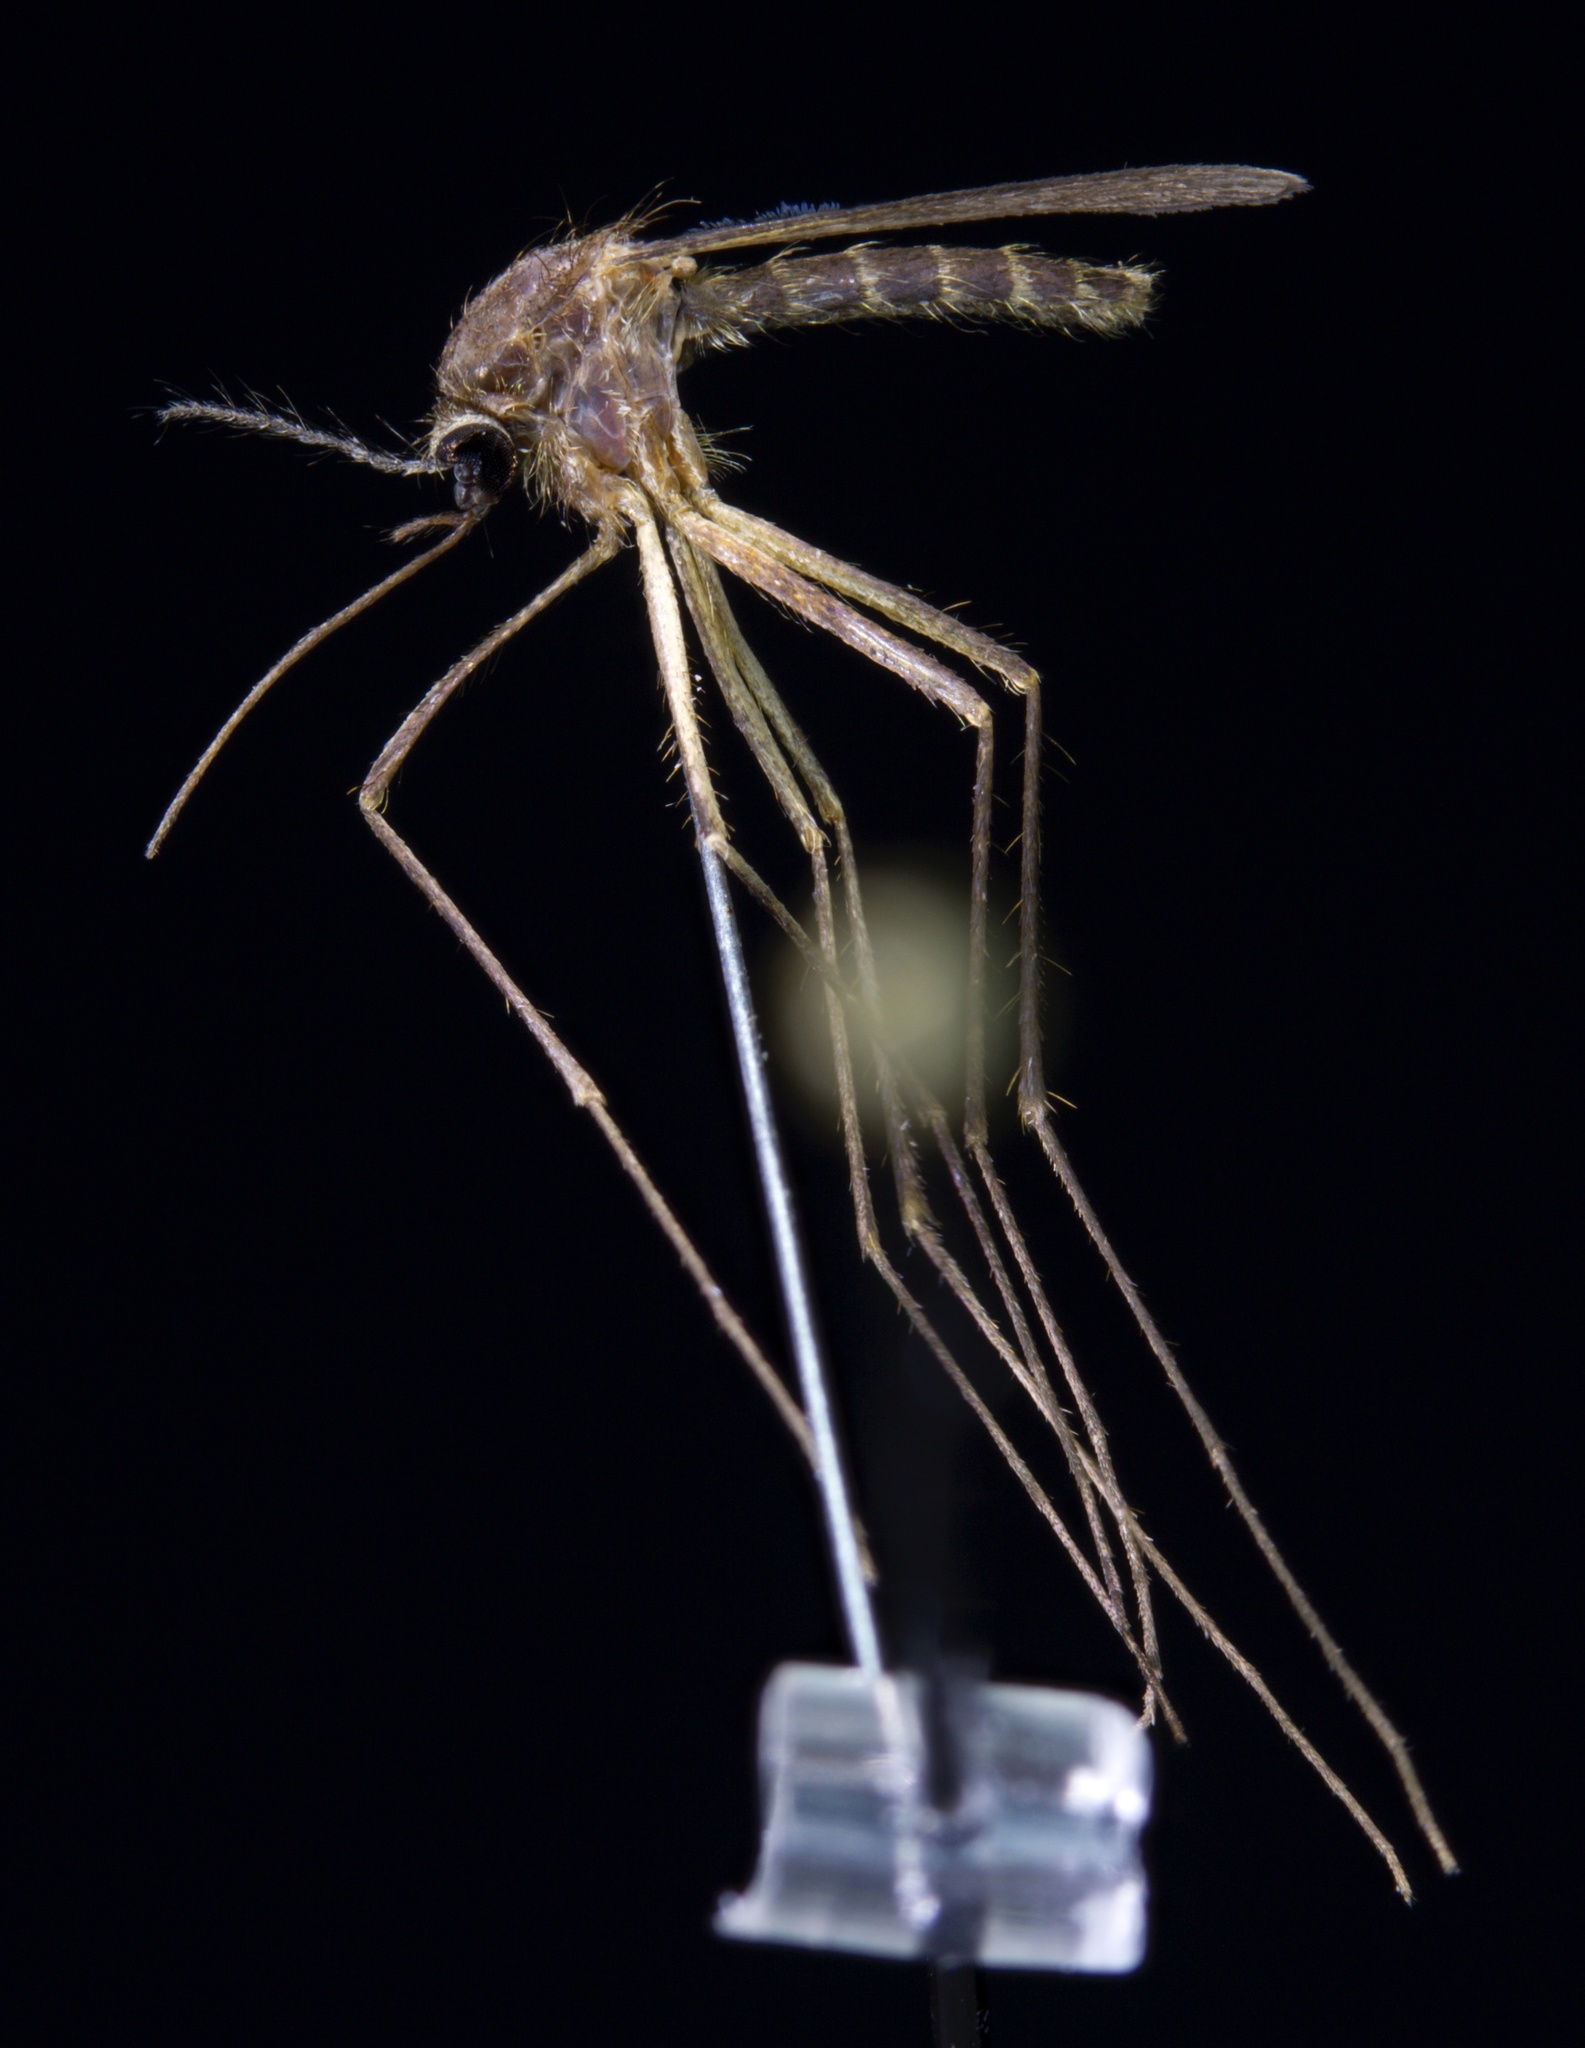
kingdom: Animalia
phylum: Arthropoda
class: Insecta
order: Diptera
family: Culicidae
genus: Culiseta
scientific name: Culiseta melanura
